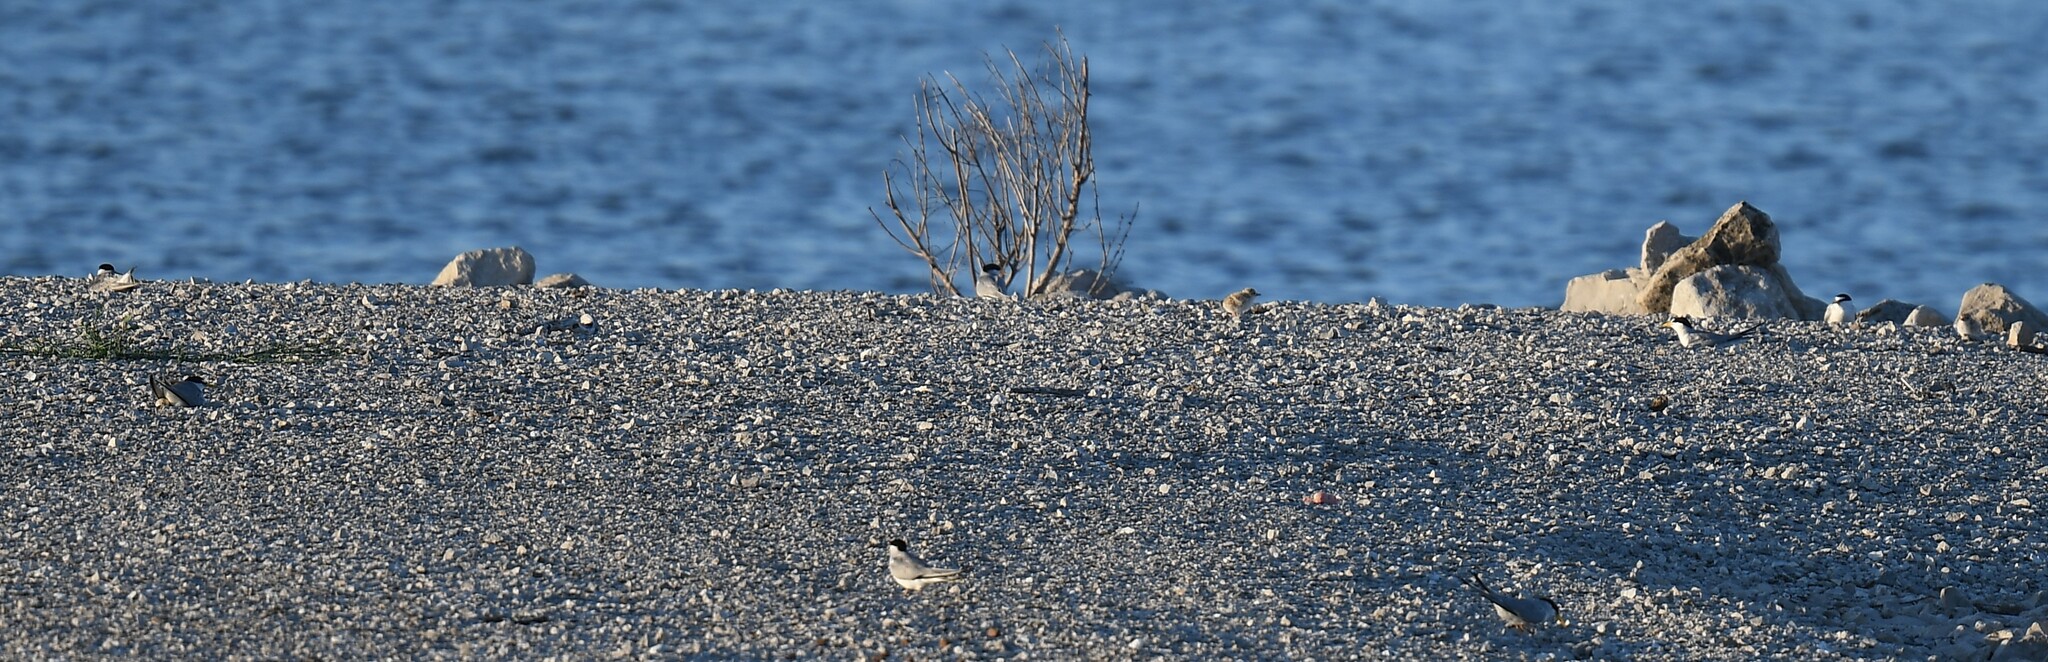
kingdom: Animalia
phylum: Chordata
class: Aves
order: Charadriiformes
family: Laridae
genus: Sternula
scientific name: Sternula antillarum
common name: Least tern
